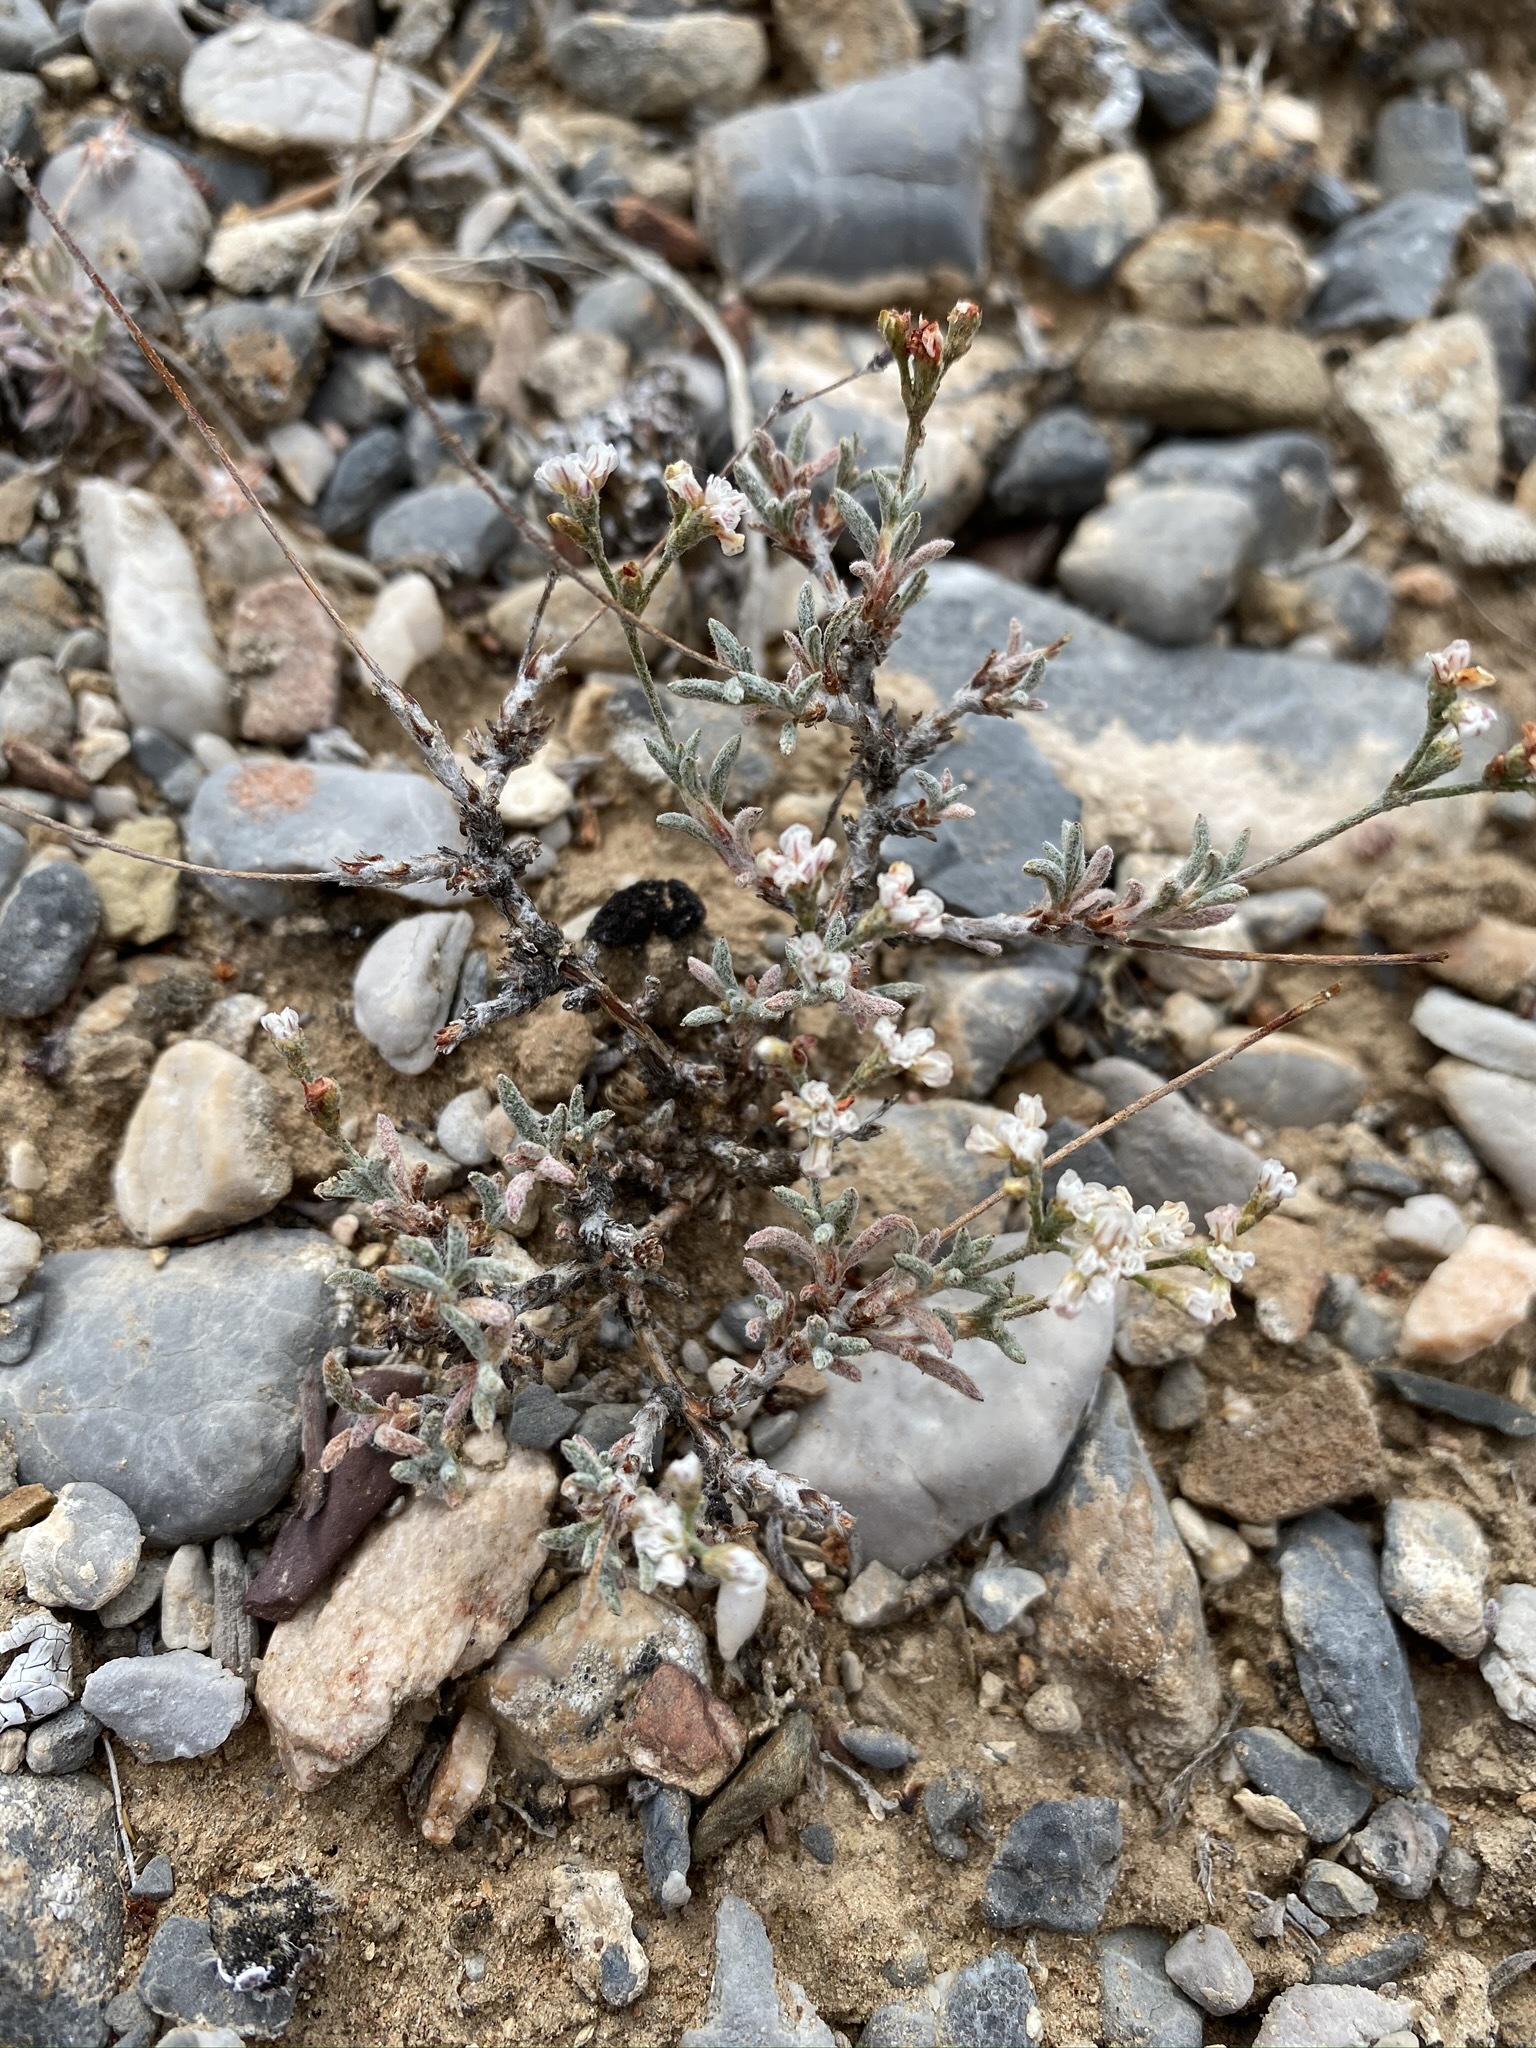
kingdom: Plantae
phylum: Tracheophyta
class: Magnoliopsida
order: Caryophyllales
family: Polygonaceae
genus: Eriogonum
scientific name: Eriogonum microtheca
